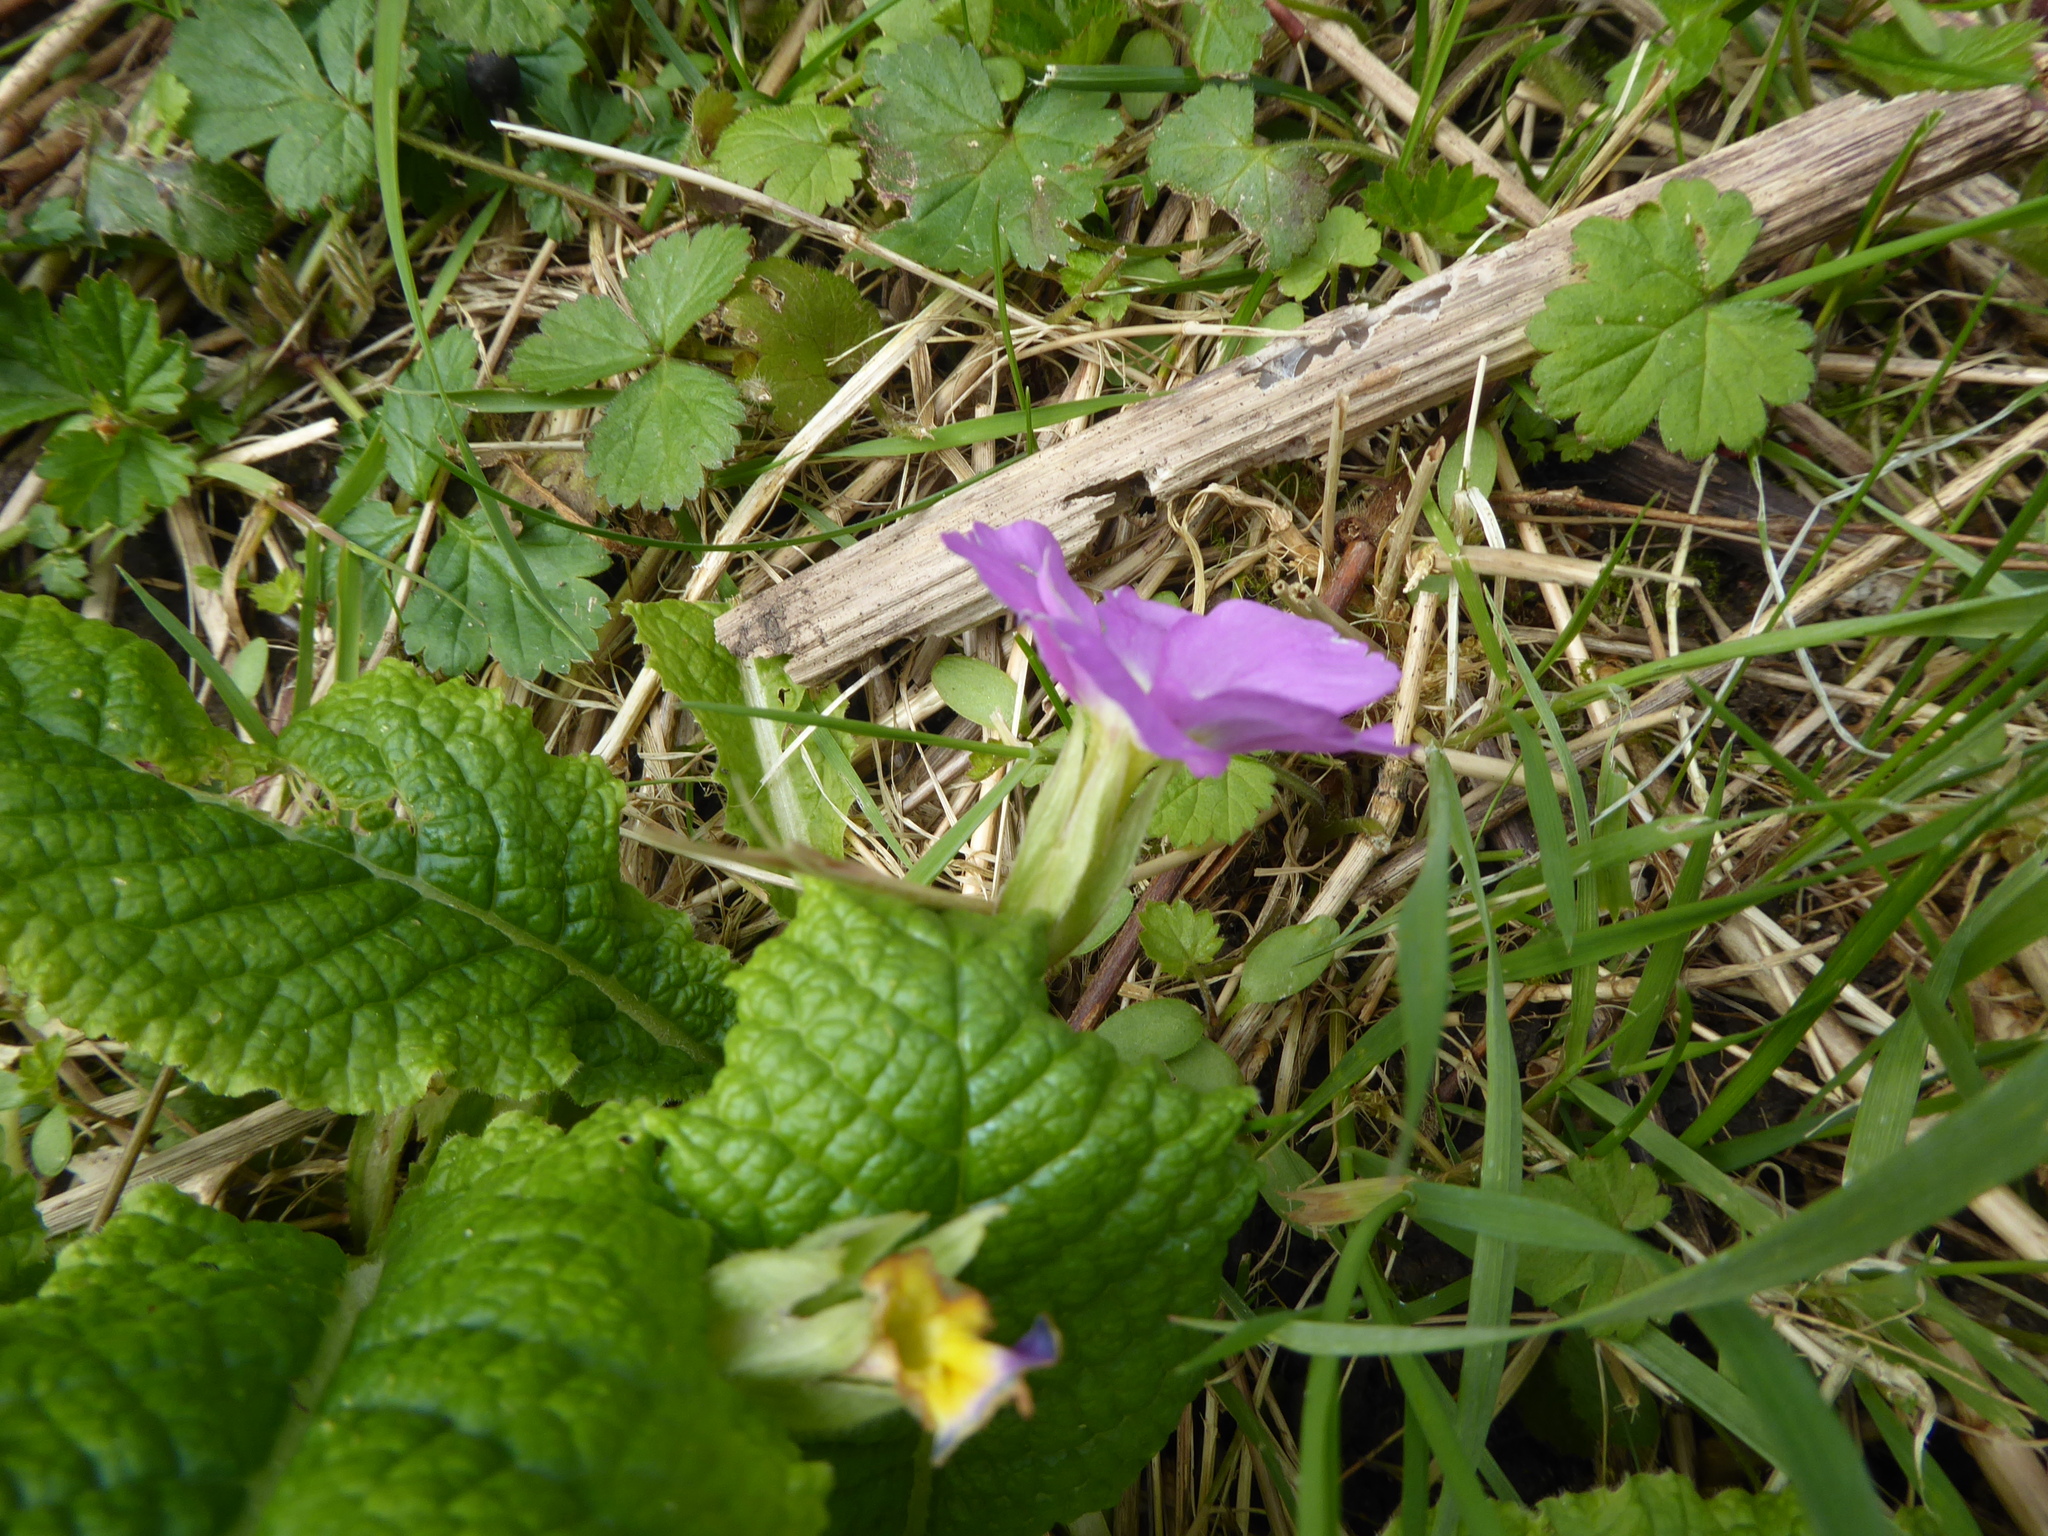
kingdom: Plantae
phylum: Tracheophyta
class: Magnoliopsida
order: Ericales
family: Primulaceae
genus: Primula
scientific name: Primula vulgaris
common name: Primrose
